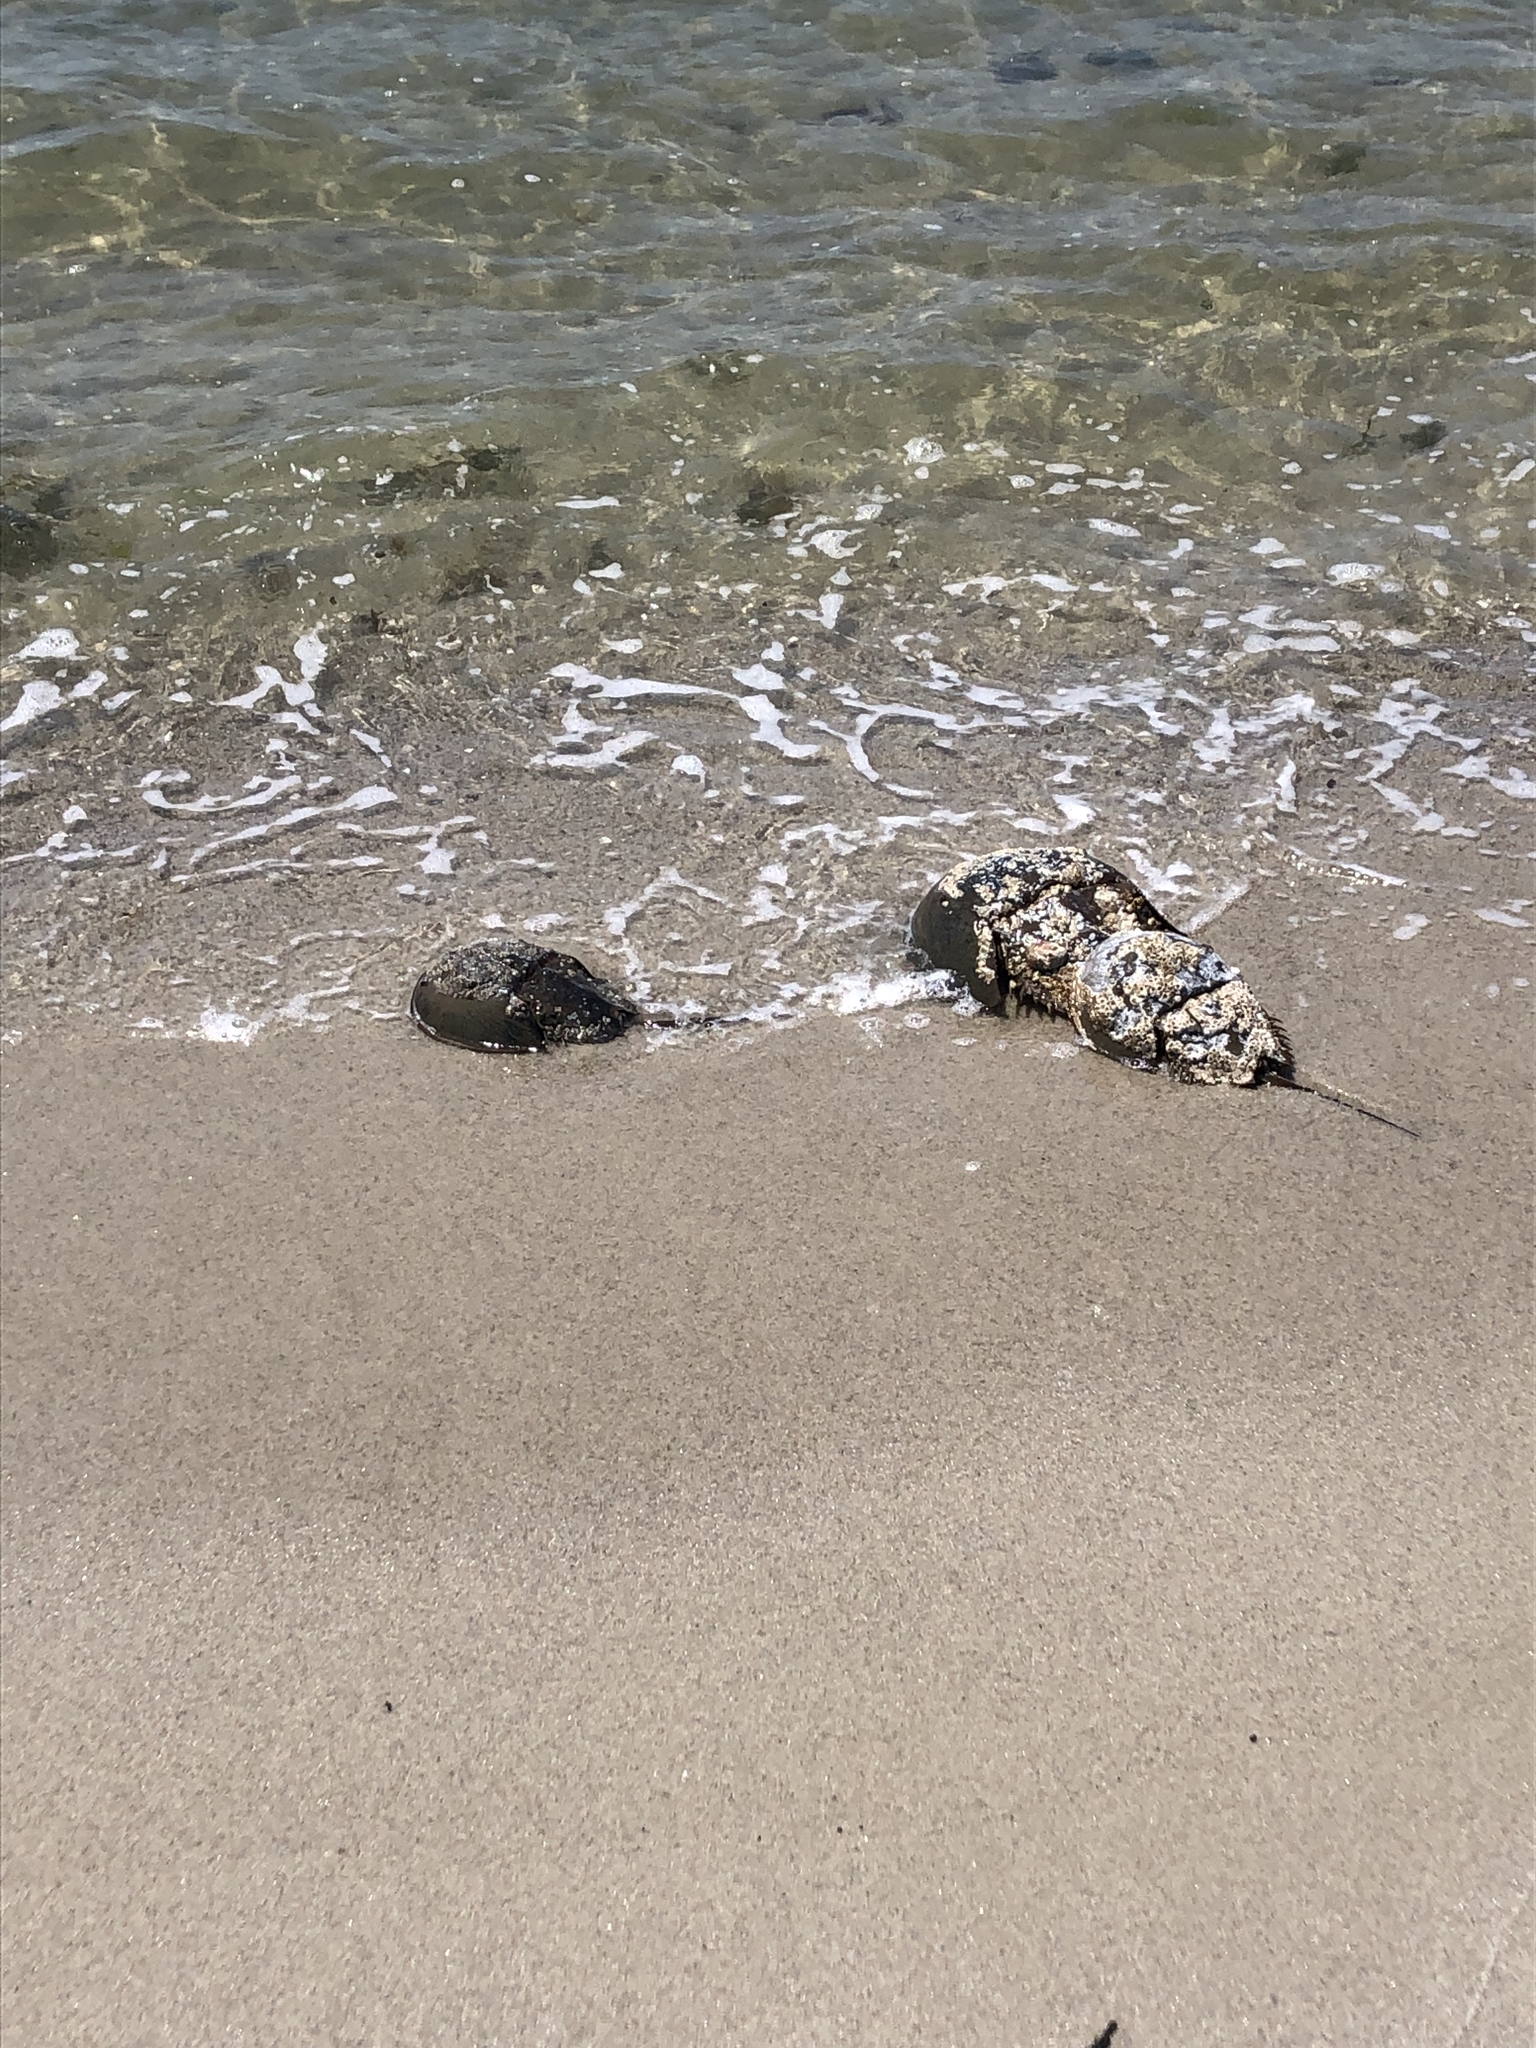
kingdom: Animalia
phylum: Arthropoda
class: Merostomata
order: Xiphosurida
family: Limulidae
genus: Limulus
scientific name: Limulus polyphemus
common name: Horseshoe crab
